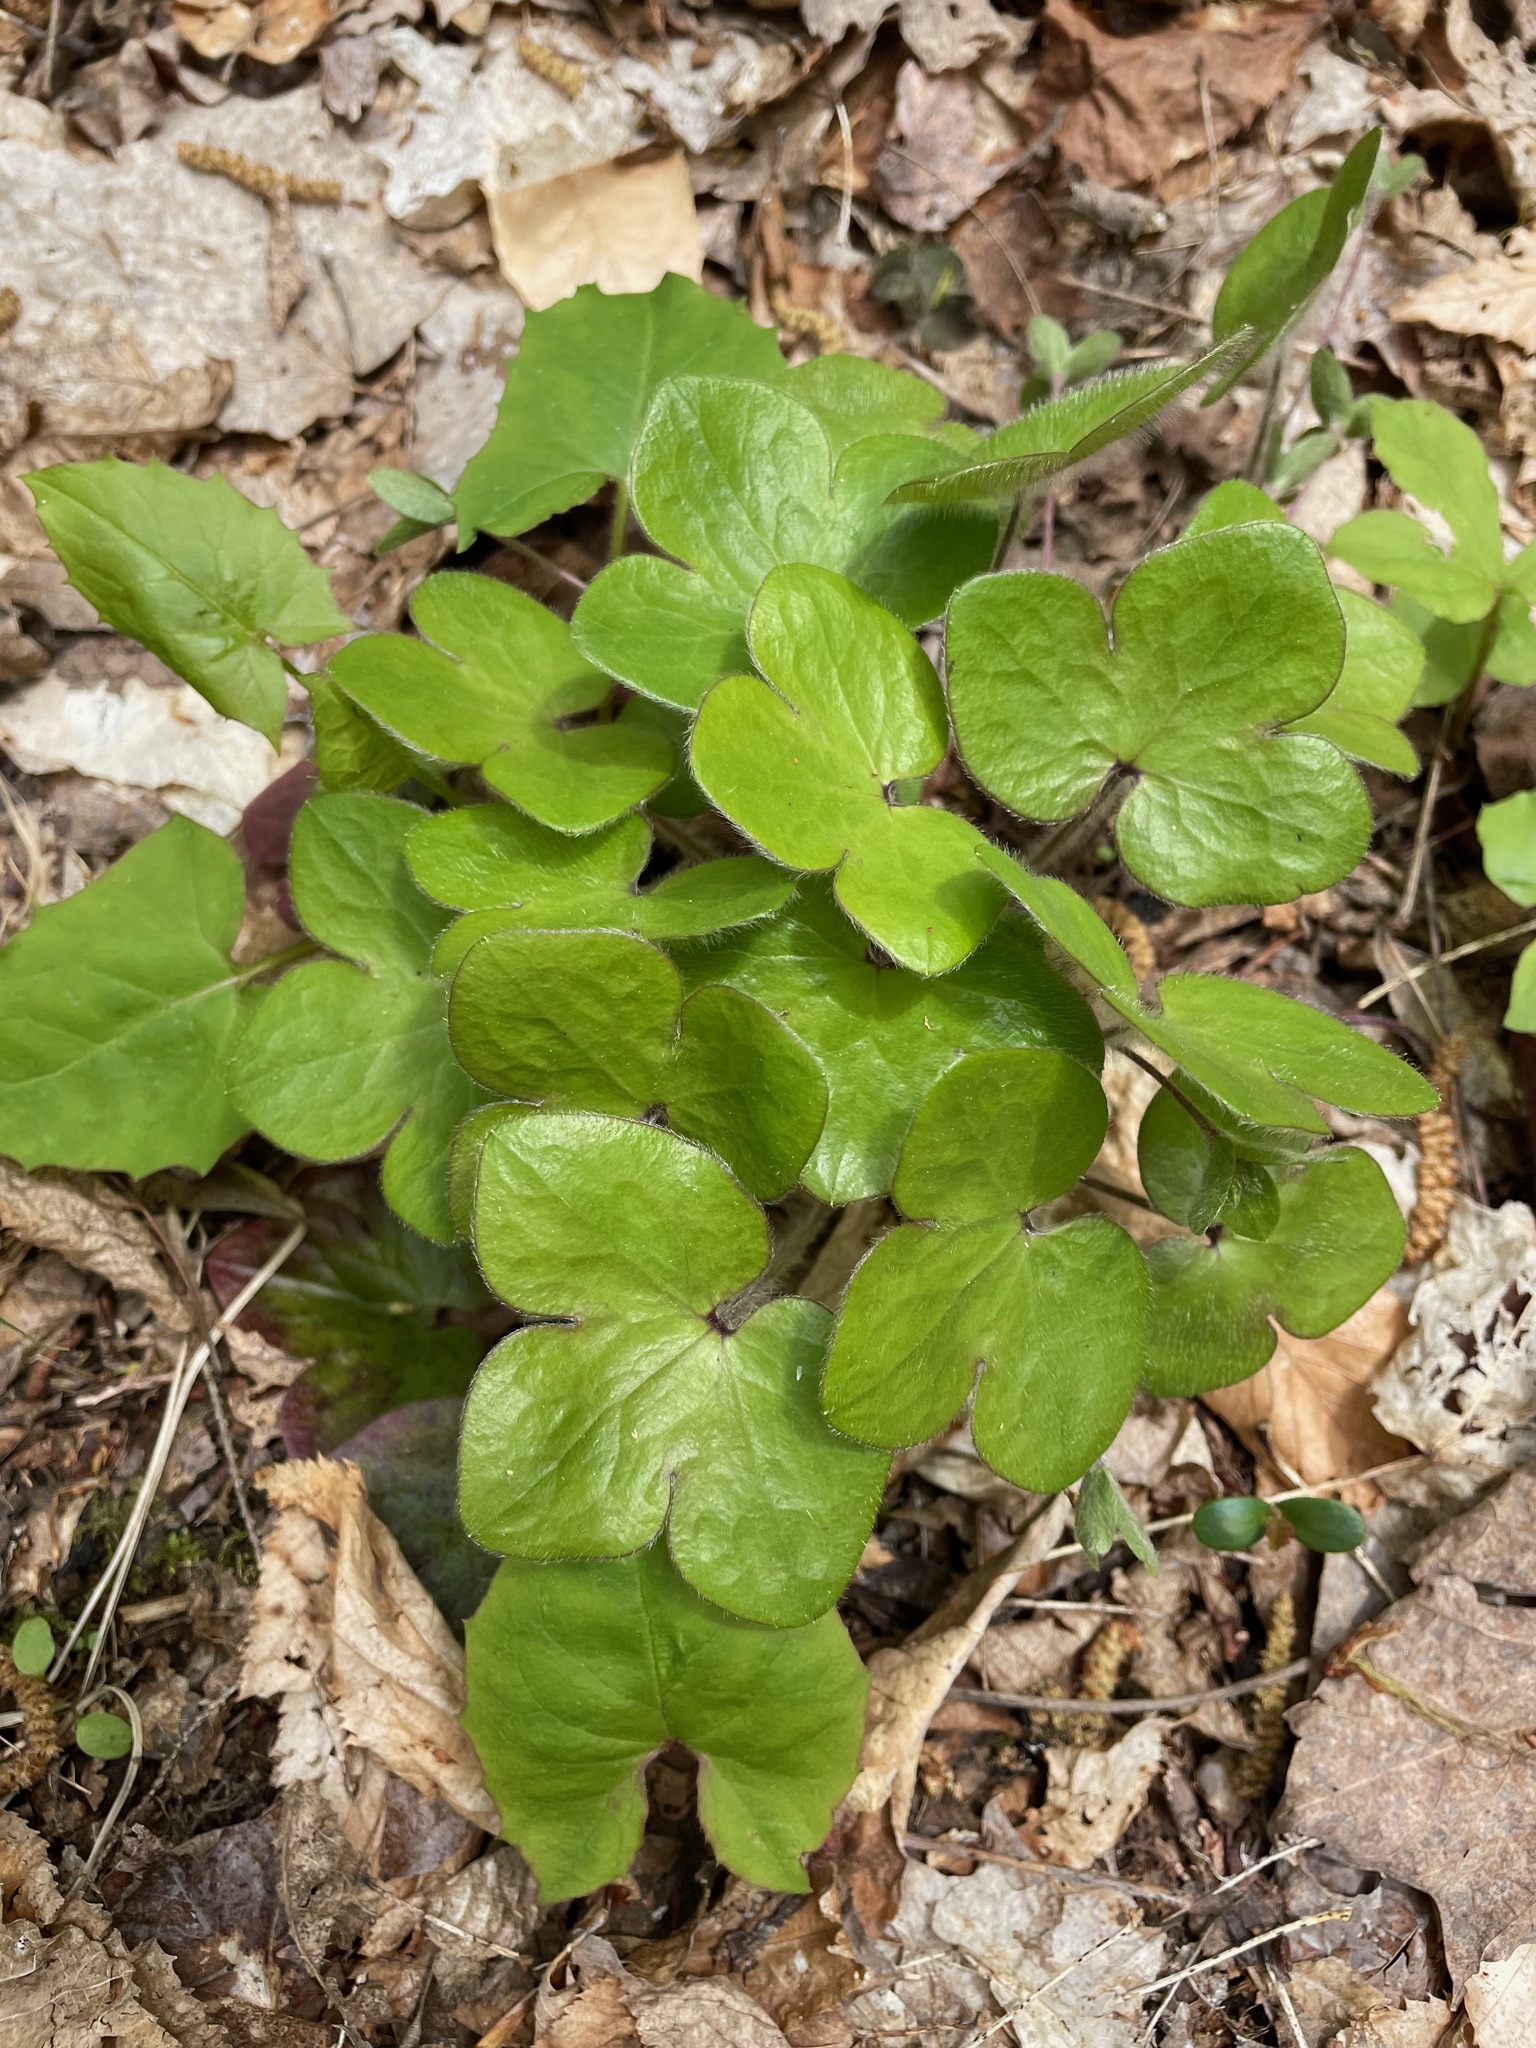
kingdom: Plantae
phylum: Tracheophyta
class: Magnoliopsida
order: Ranunculales
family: Ranunculaceae
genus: Hepatica
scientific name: Hepatica americana
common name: American hepatica
